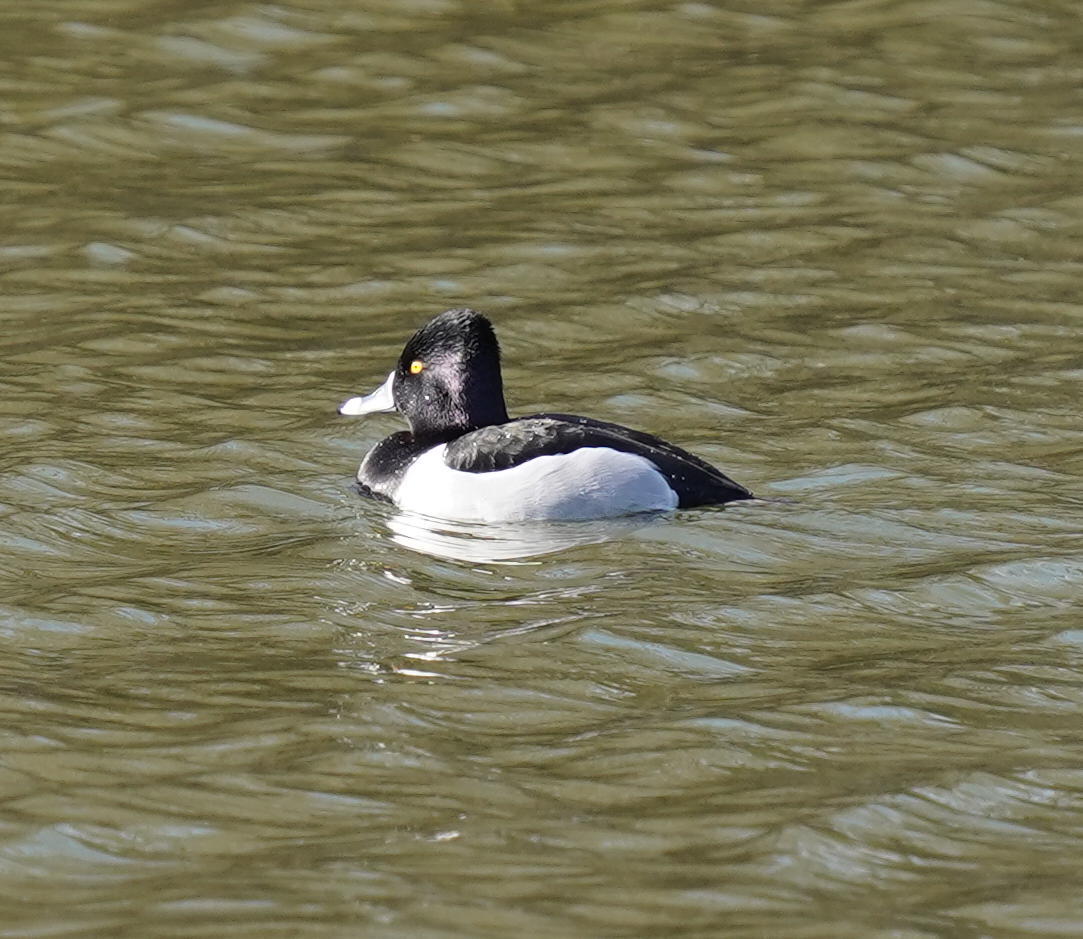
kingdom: Animalia
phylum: Chordata
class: Aves
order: Anseriformes
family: Anatidae
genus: Aythya
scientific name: Aythya collaris
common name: Ring-necked duck
